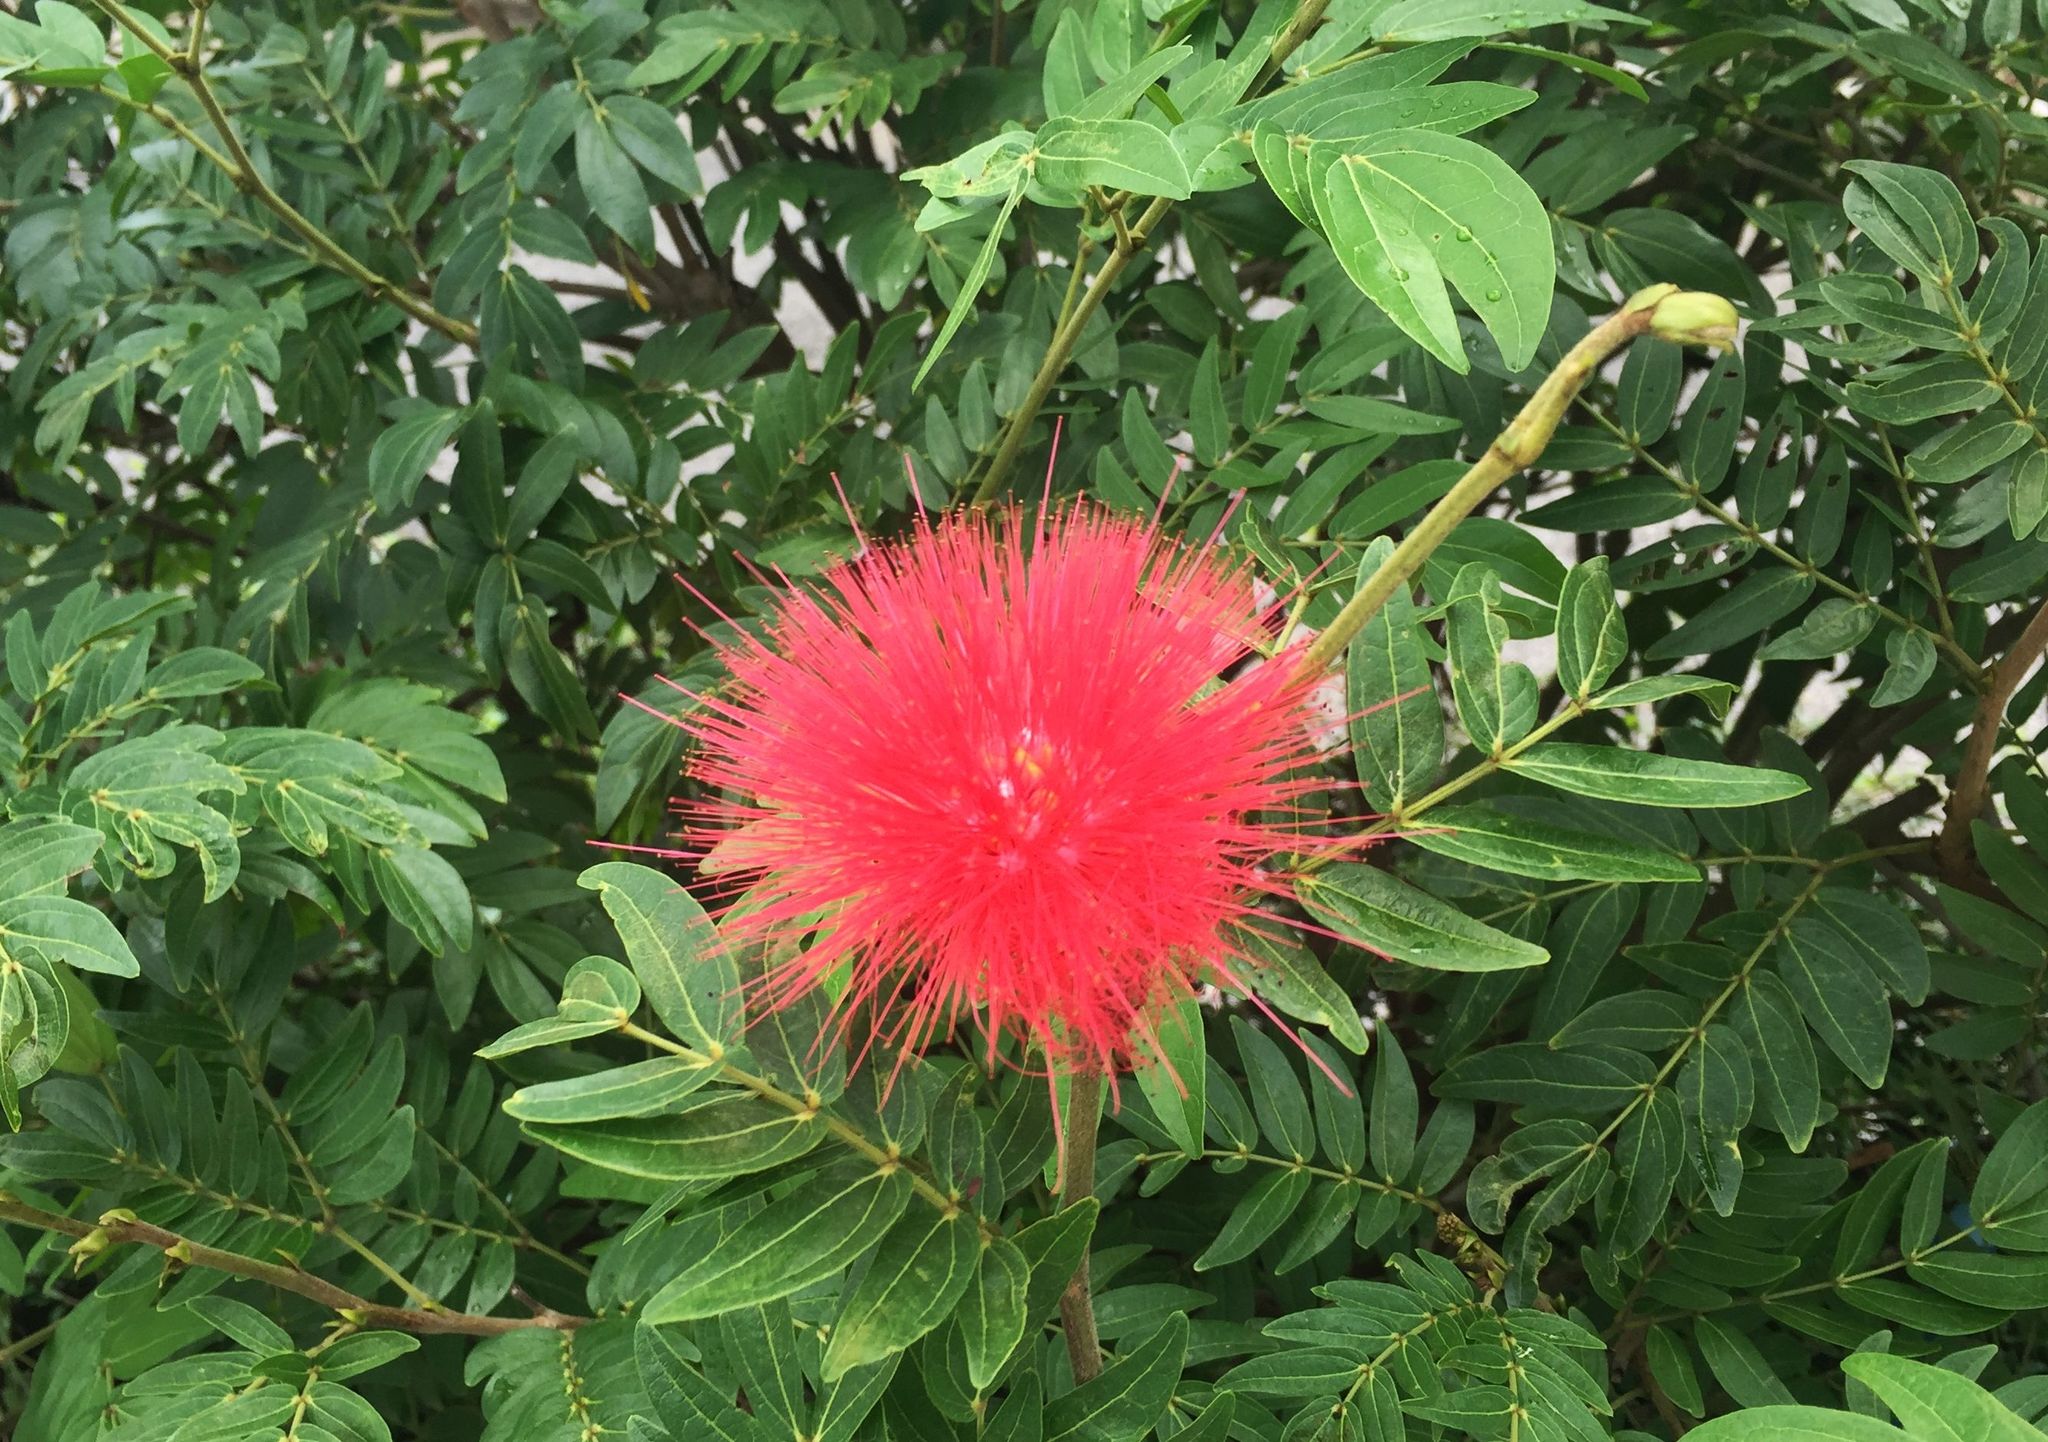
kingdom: Plantae
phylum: Tracheophyta
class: Magnoliopsida
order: Fabales
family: Fabaceae
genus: Calliandra
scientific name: Calliandra haematocephala
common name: Blood red tassel flower
